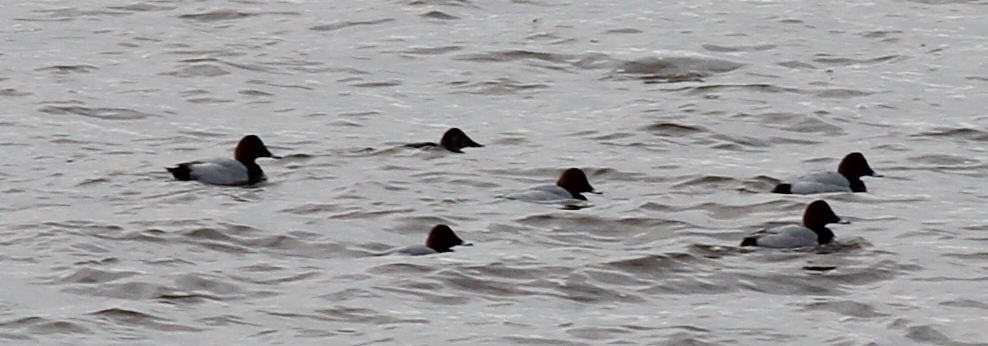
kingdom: Animalia
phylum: Chordata
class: Aves
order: Anseriformes
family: Anatidae
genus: Aythya
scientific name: Aythya ferina
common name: Common pochard
